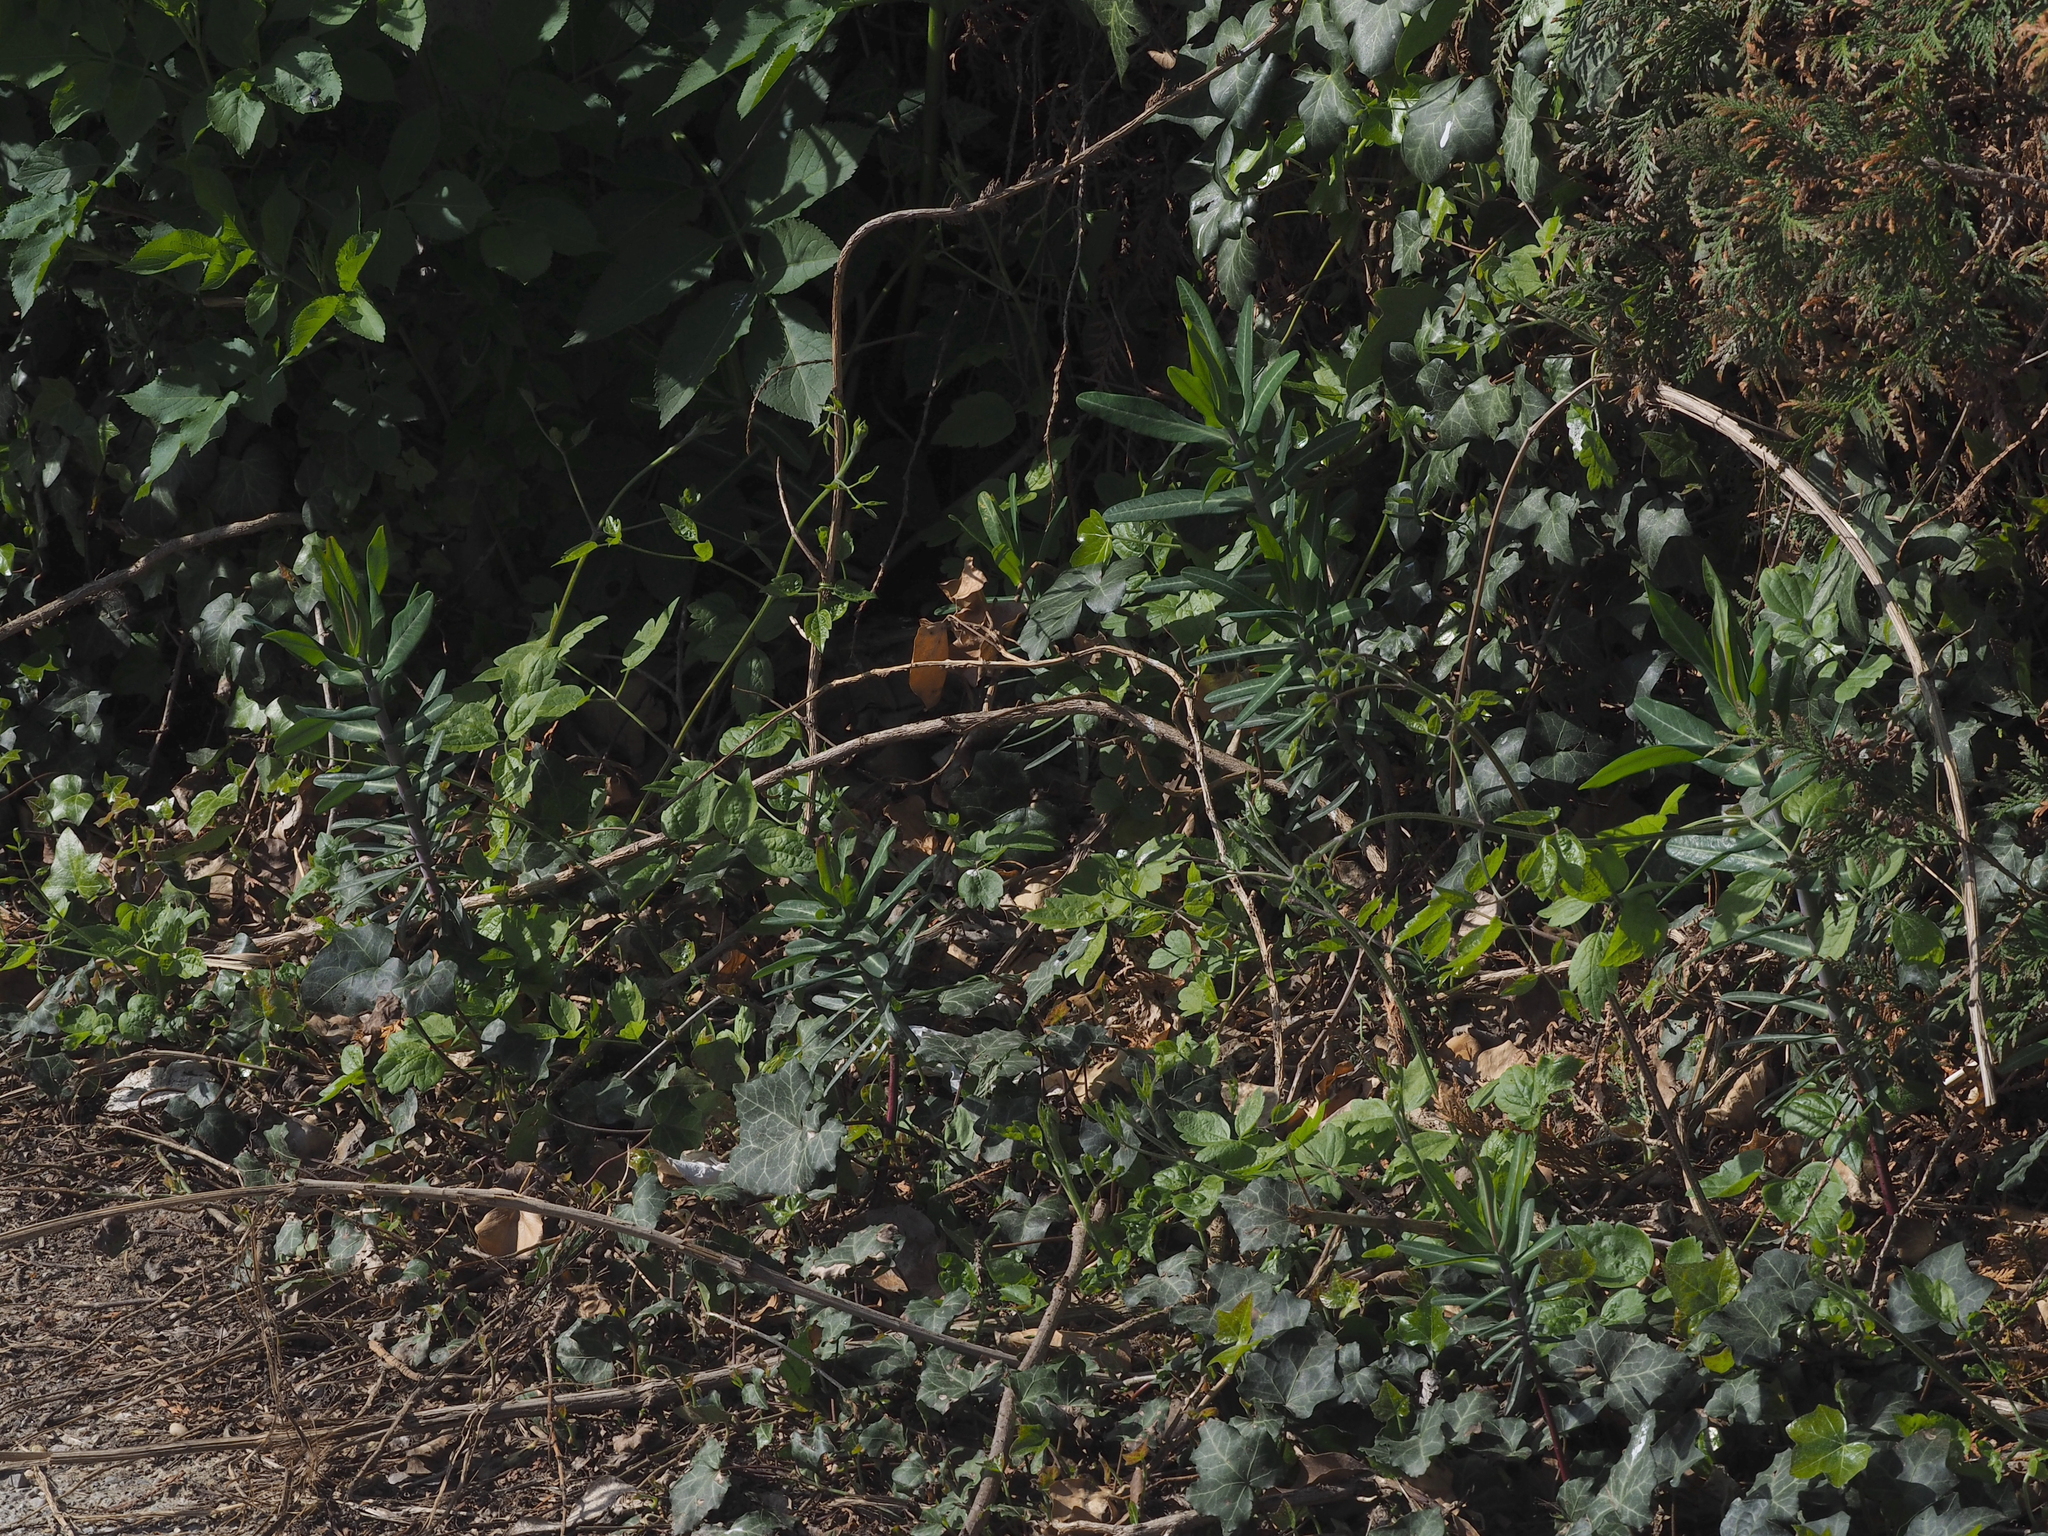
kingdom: Plantae
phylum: Tracheophyta
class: Magnoliopsida
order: Malpighiales
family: Euphorbiaceae
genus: Euphorbia
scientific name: Euphorbia lathyris
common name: Caper spurge
